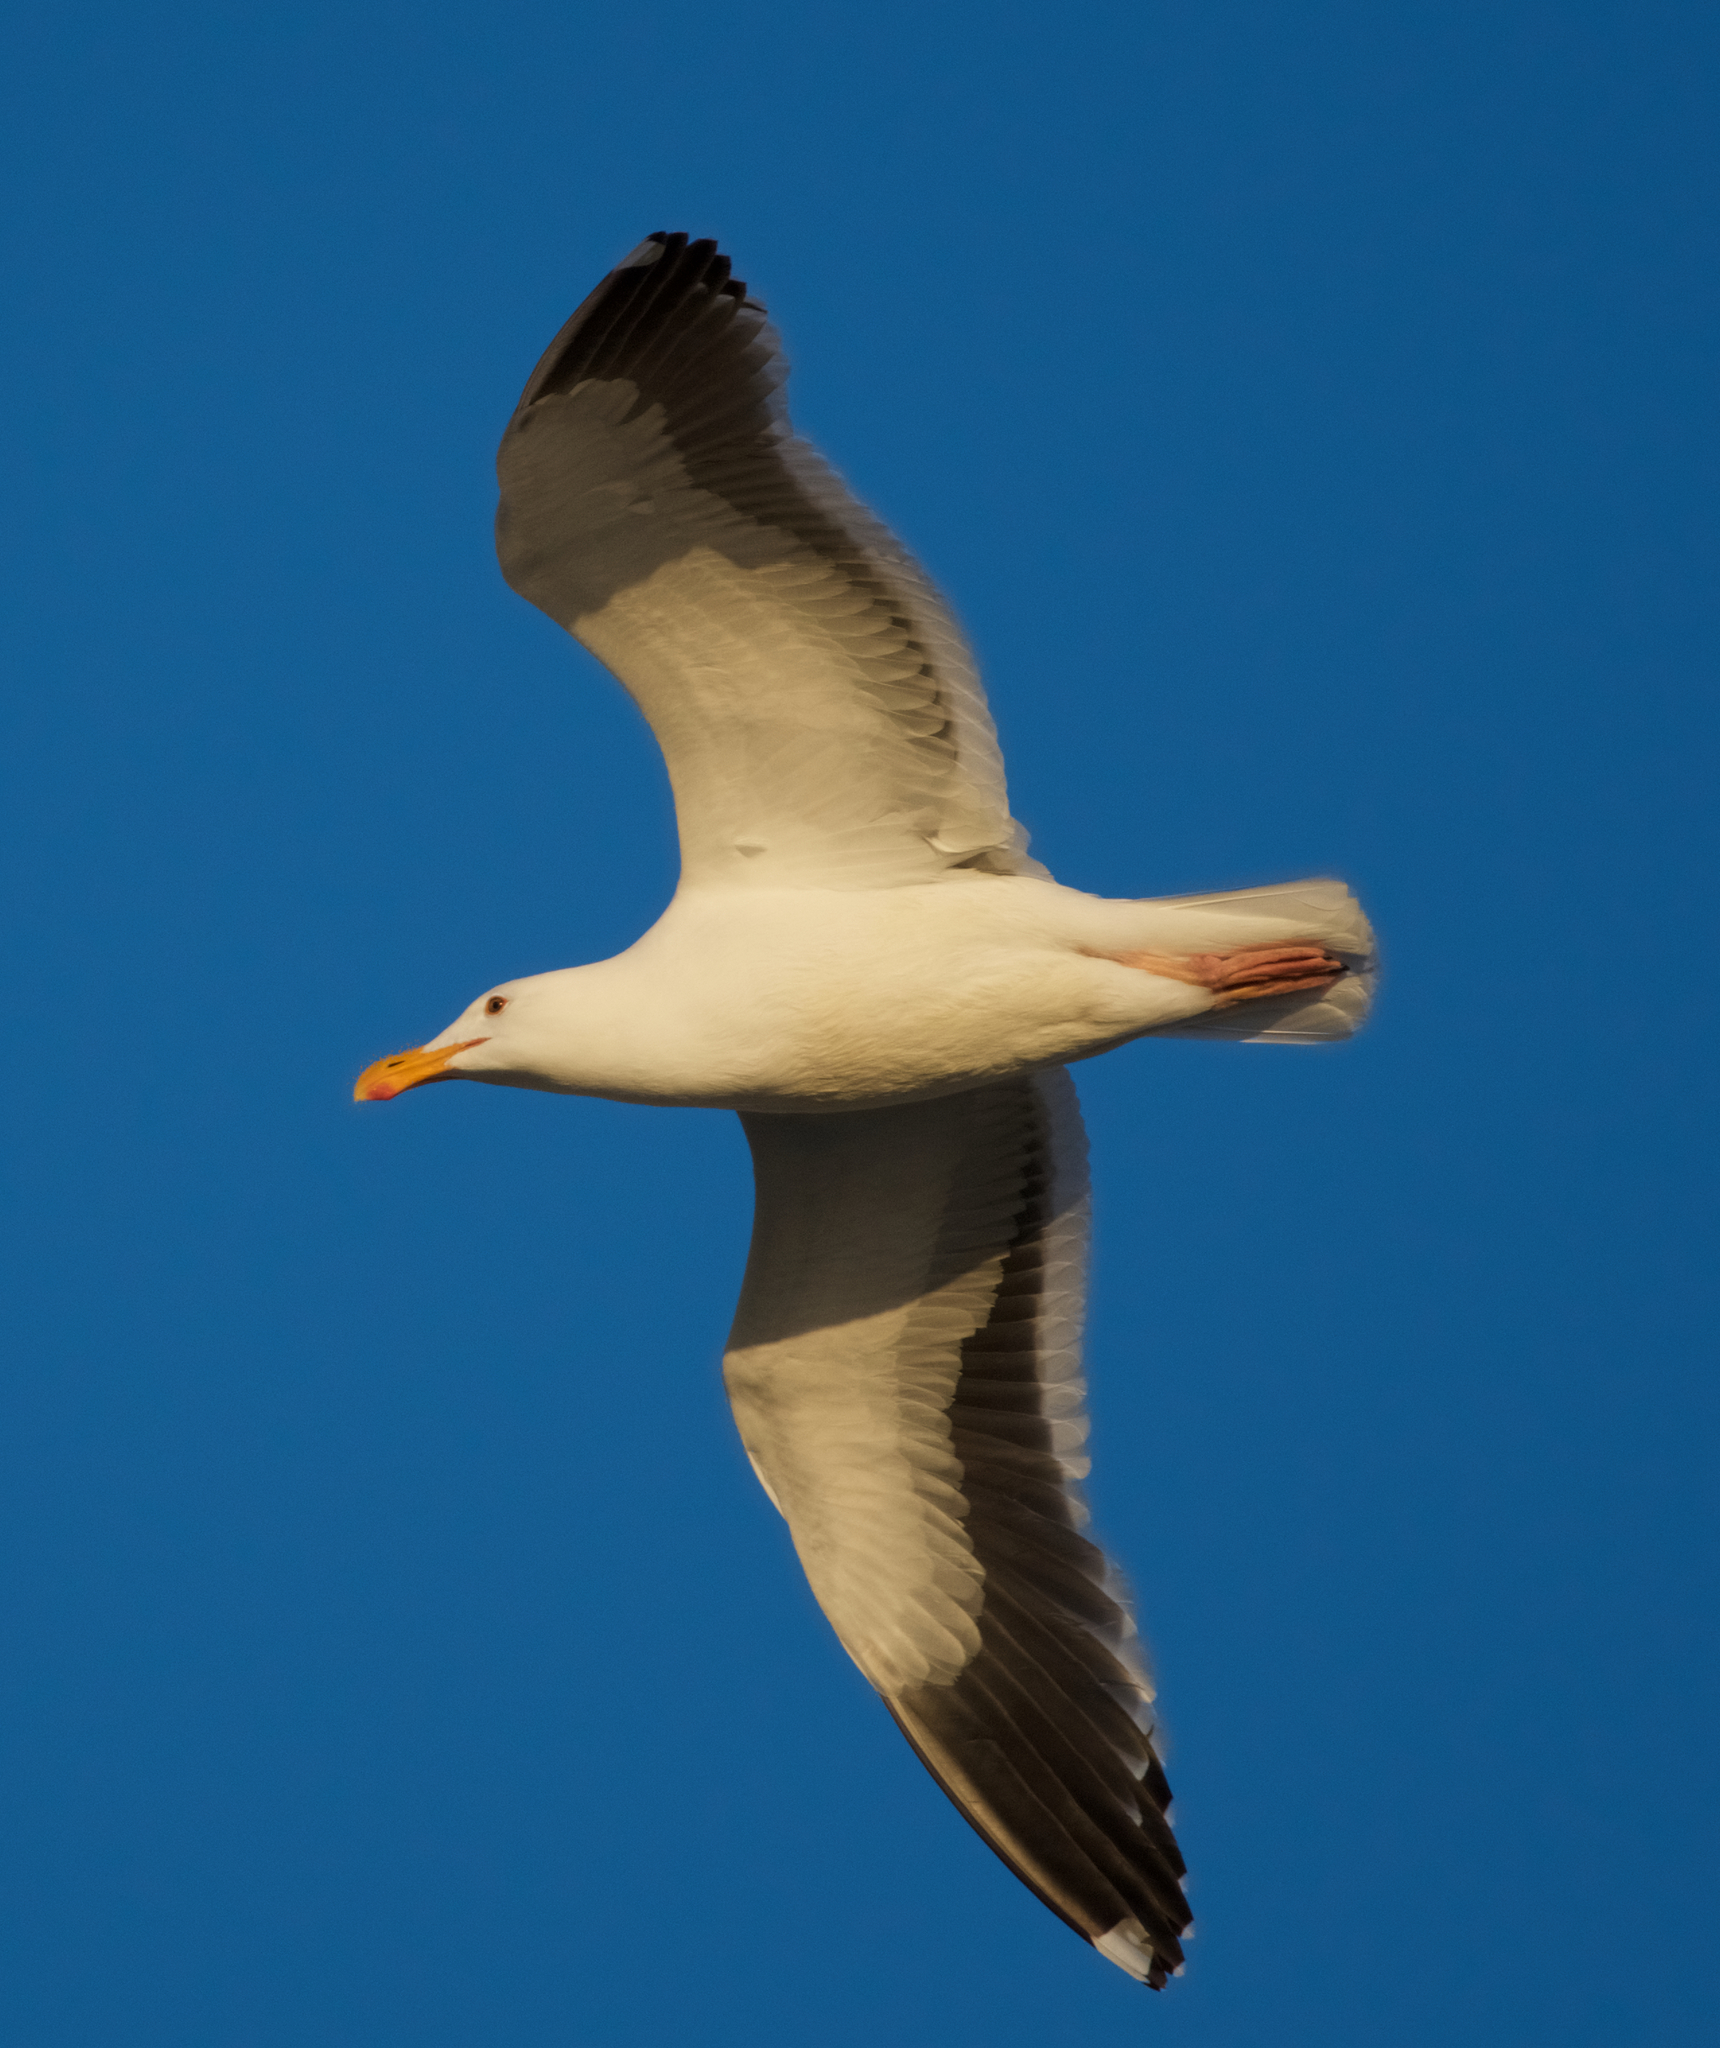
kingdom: Animalia
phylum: Chordata
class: Aves
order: Charadriiformes
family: Laridae
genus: Larus
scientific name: Larus occidentalis
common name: Western gull
